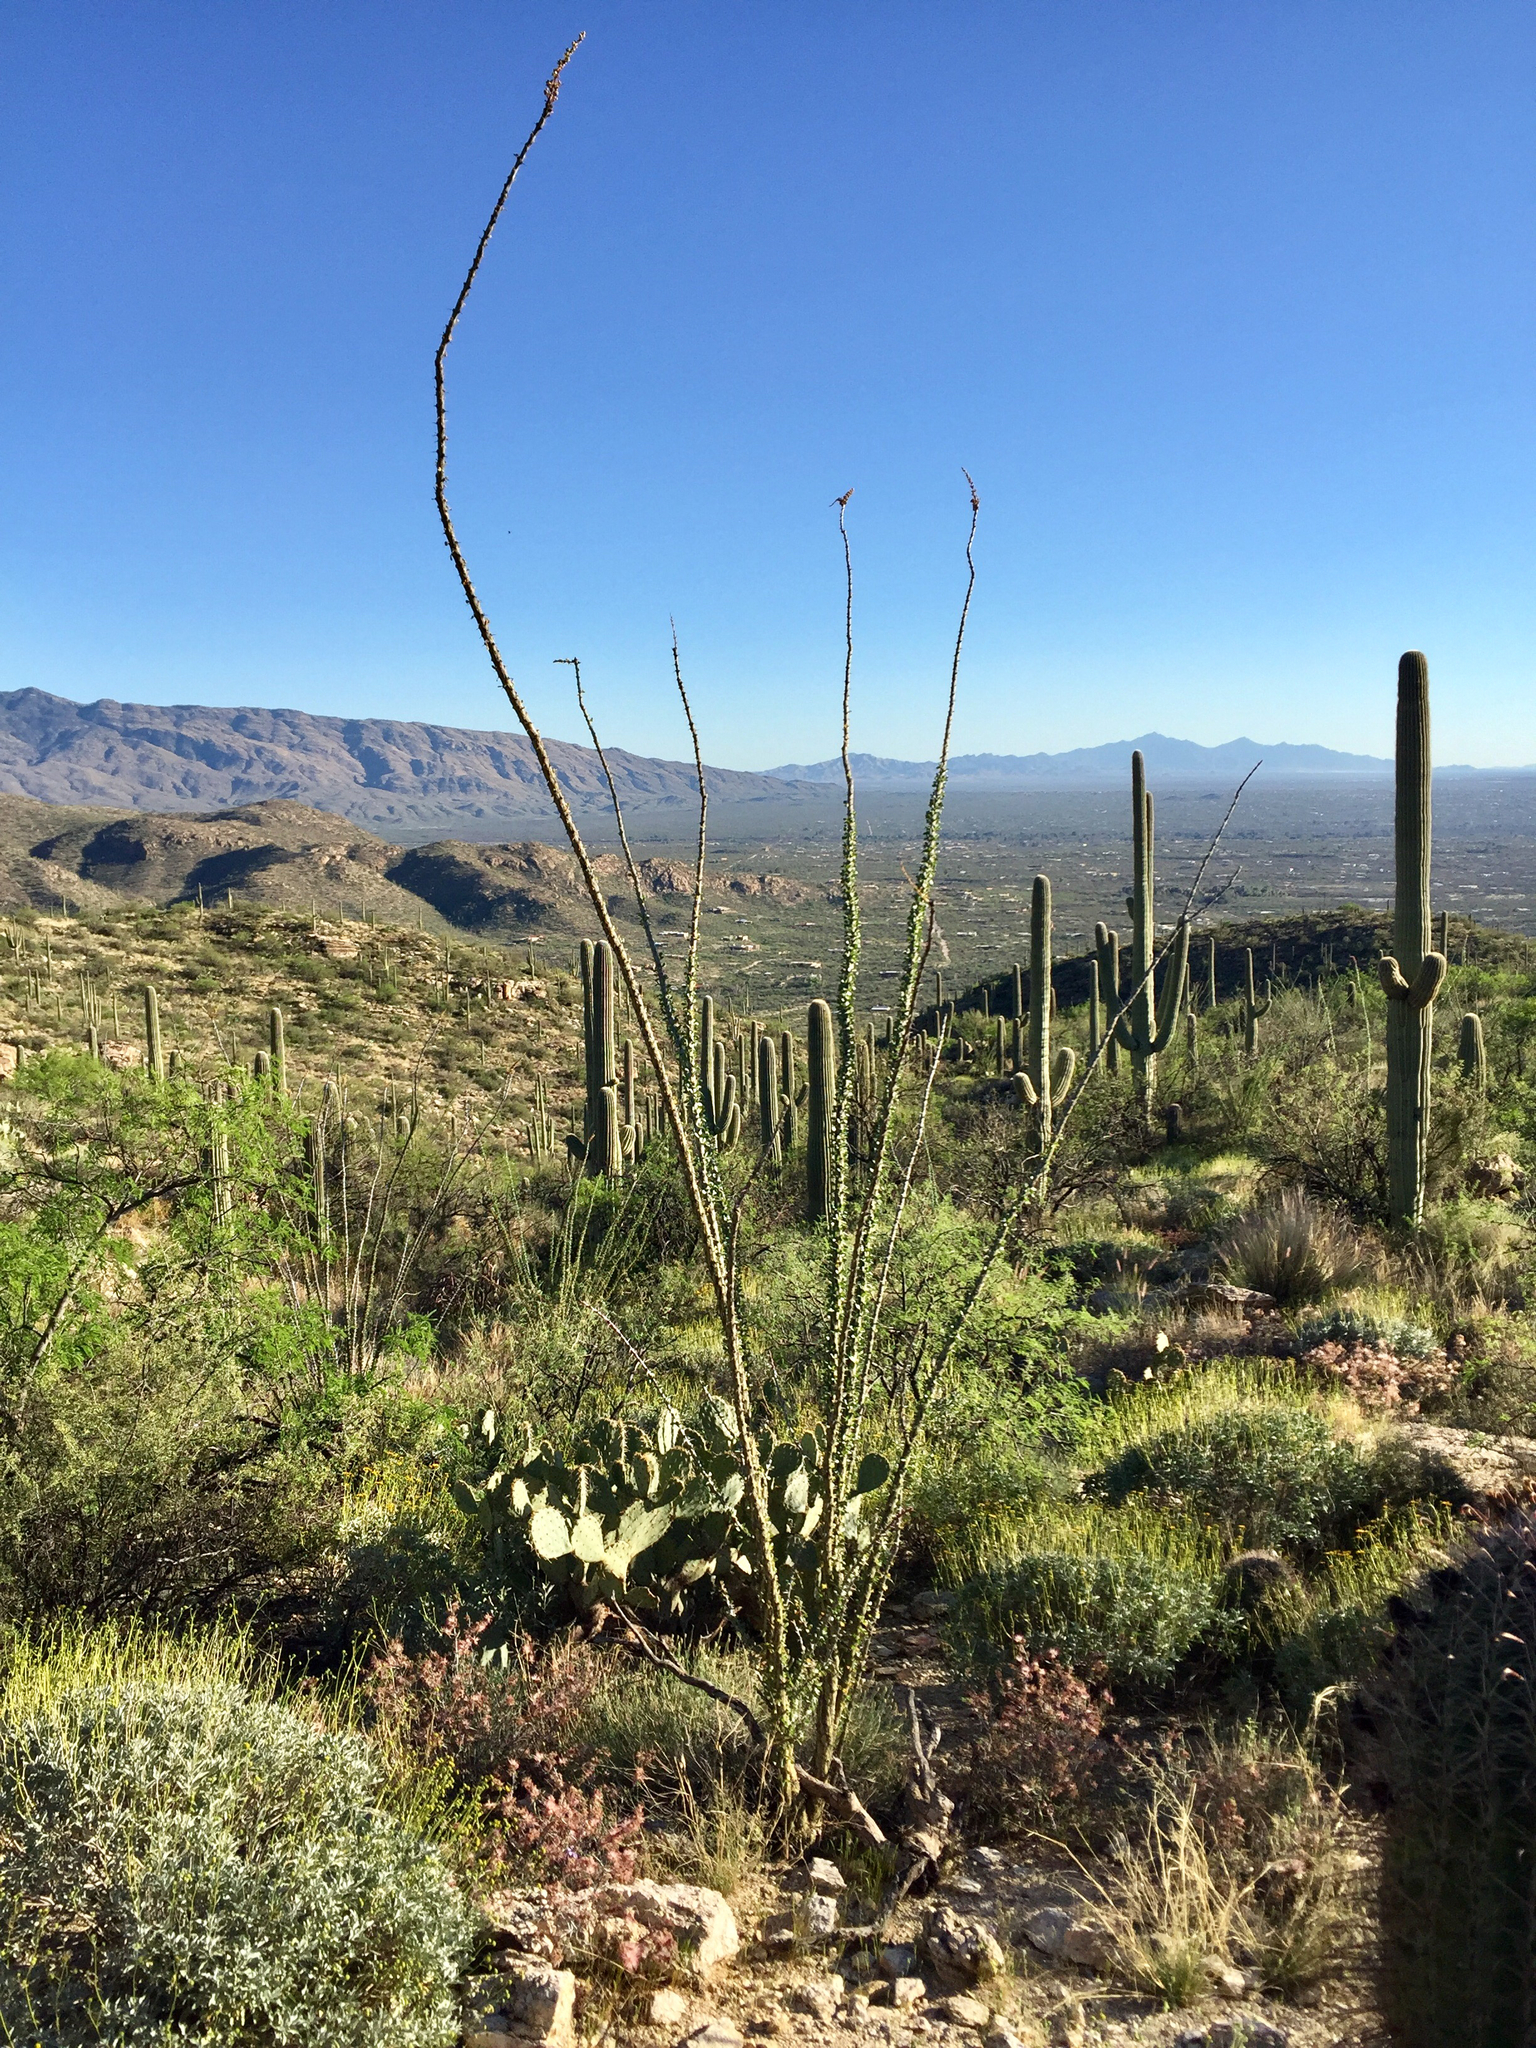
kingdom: Plantae
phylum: Tracheophyta
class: Magnoliopsida
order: Ericales
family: Fouquieriaceae
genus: Fouquieria
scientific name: Fouquieria splendens
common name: Vine-cactus
